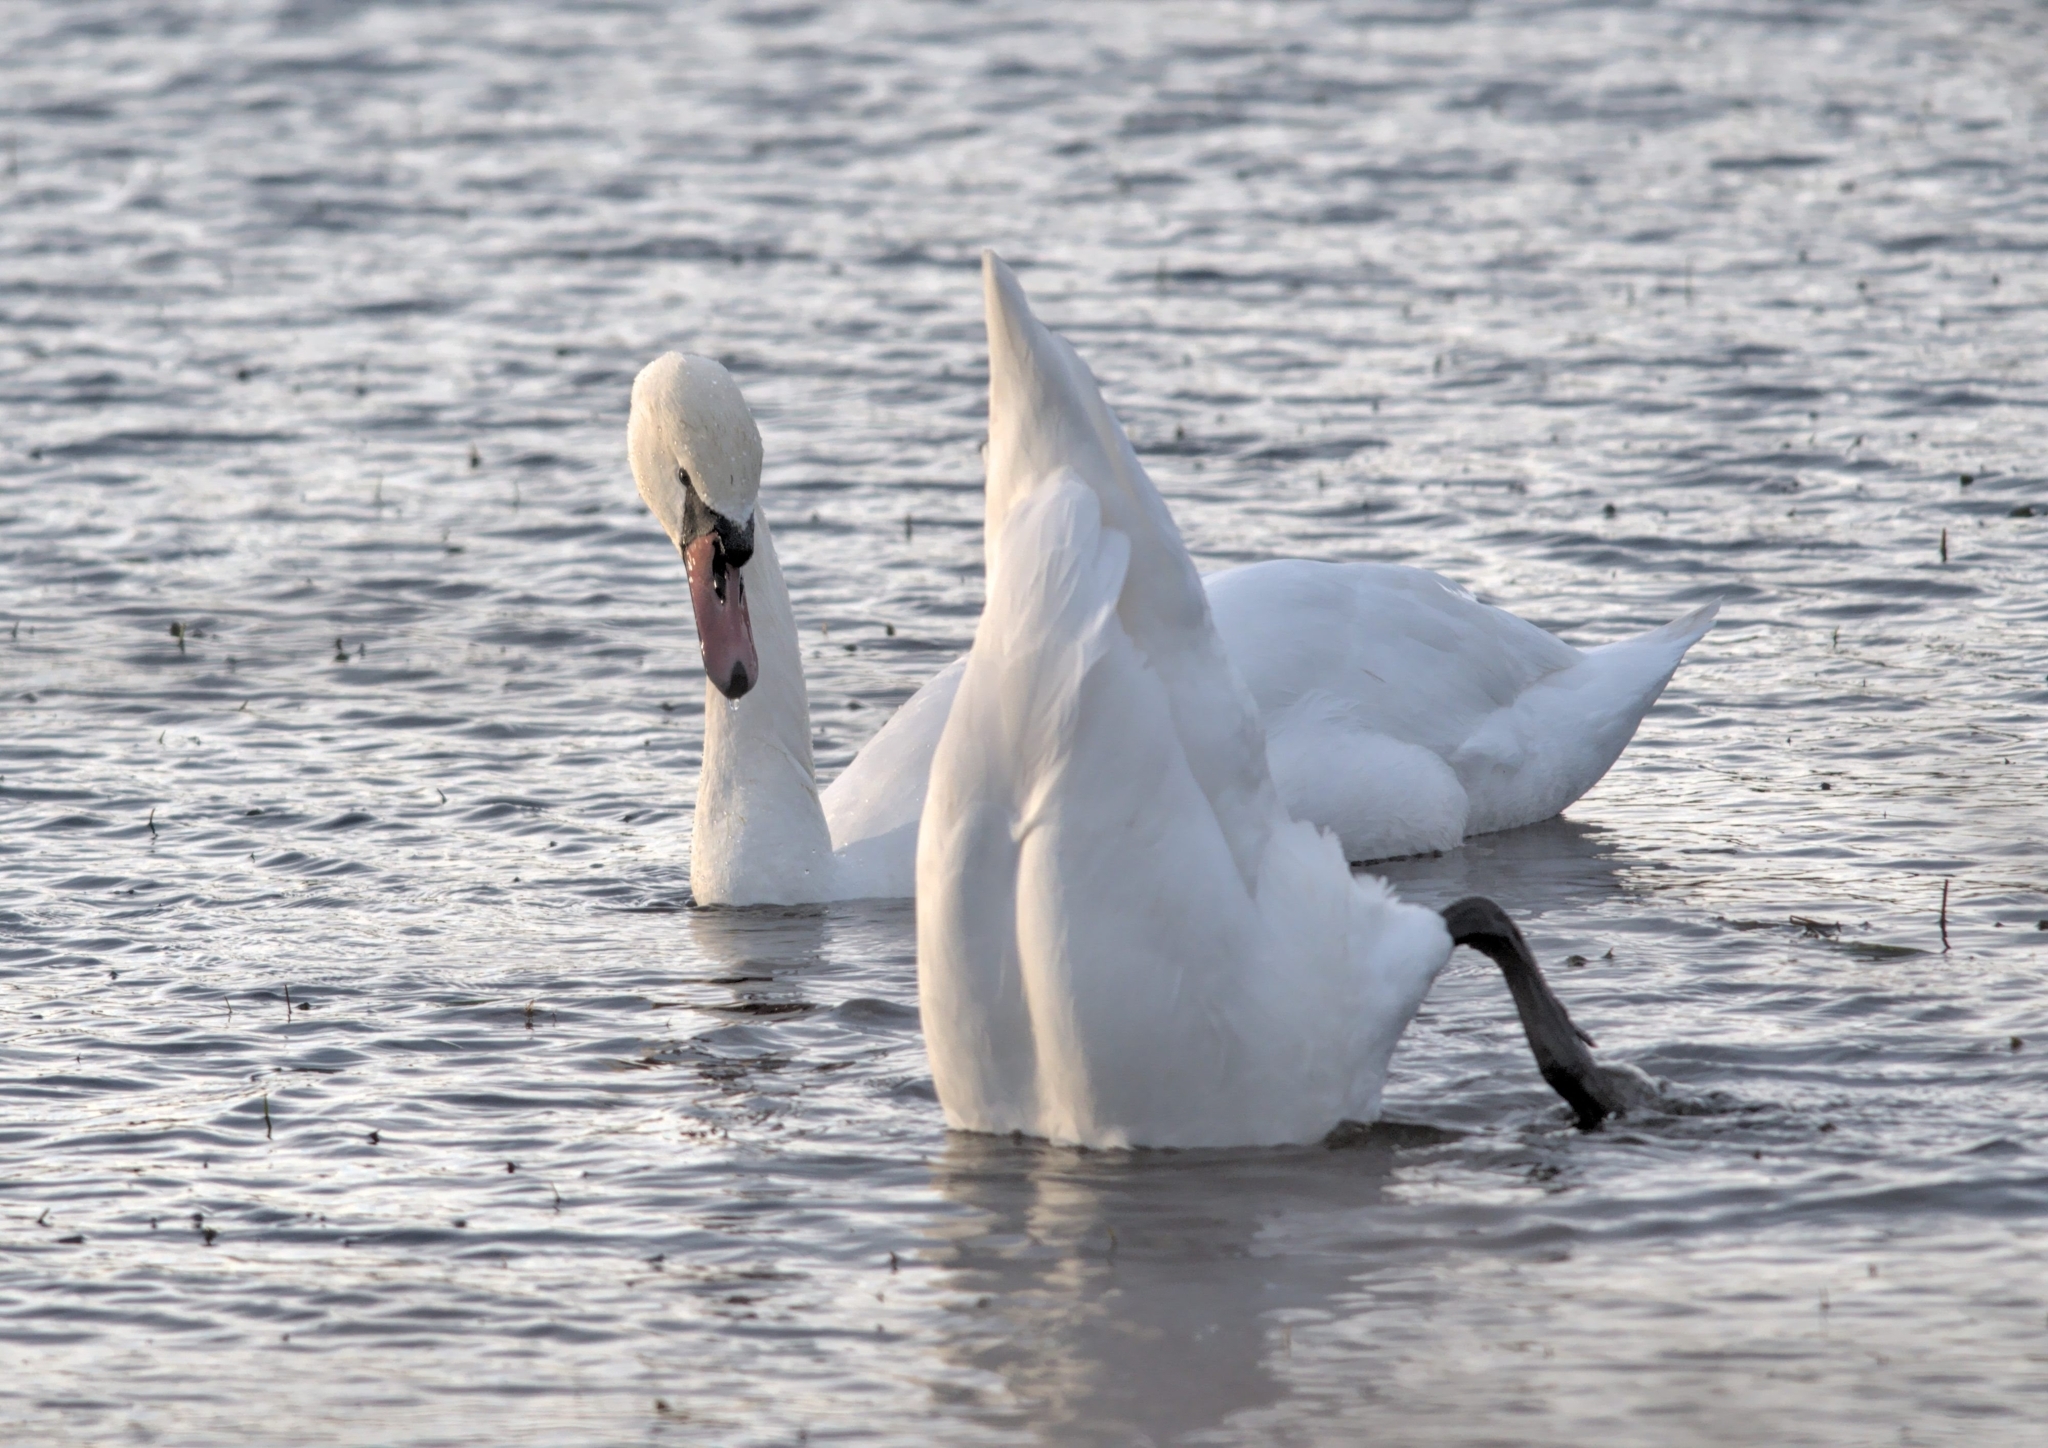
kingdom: Animalia
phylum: Chordata
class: Aves
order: Anseriformes
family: Anatidae
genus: Cygnus
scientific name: Cygnus olor
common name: Mute swan
